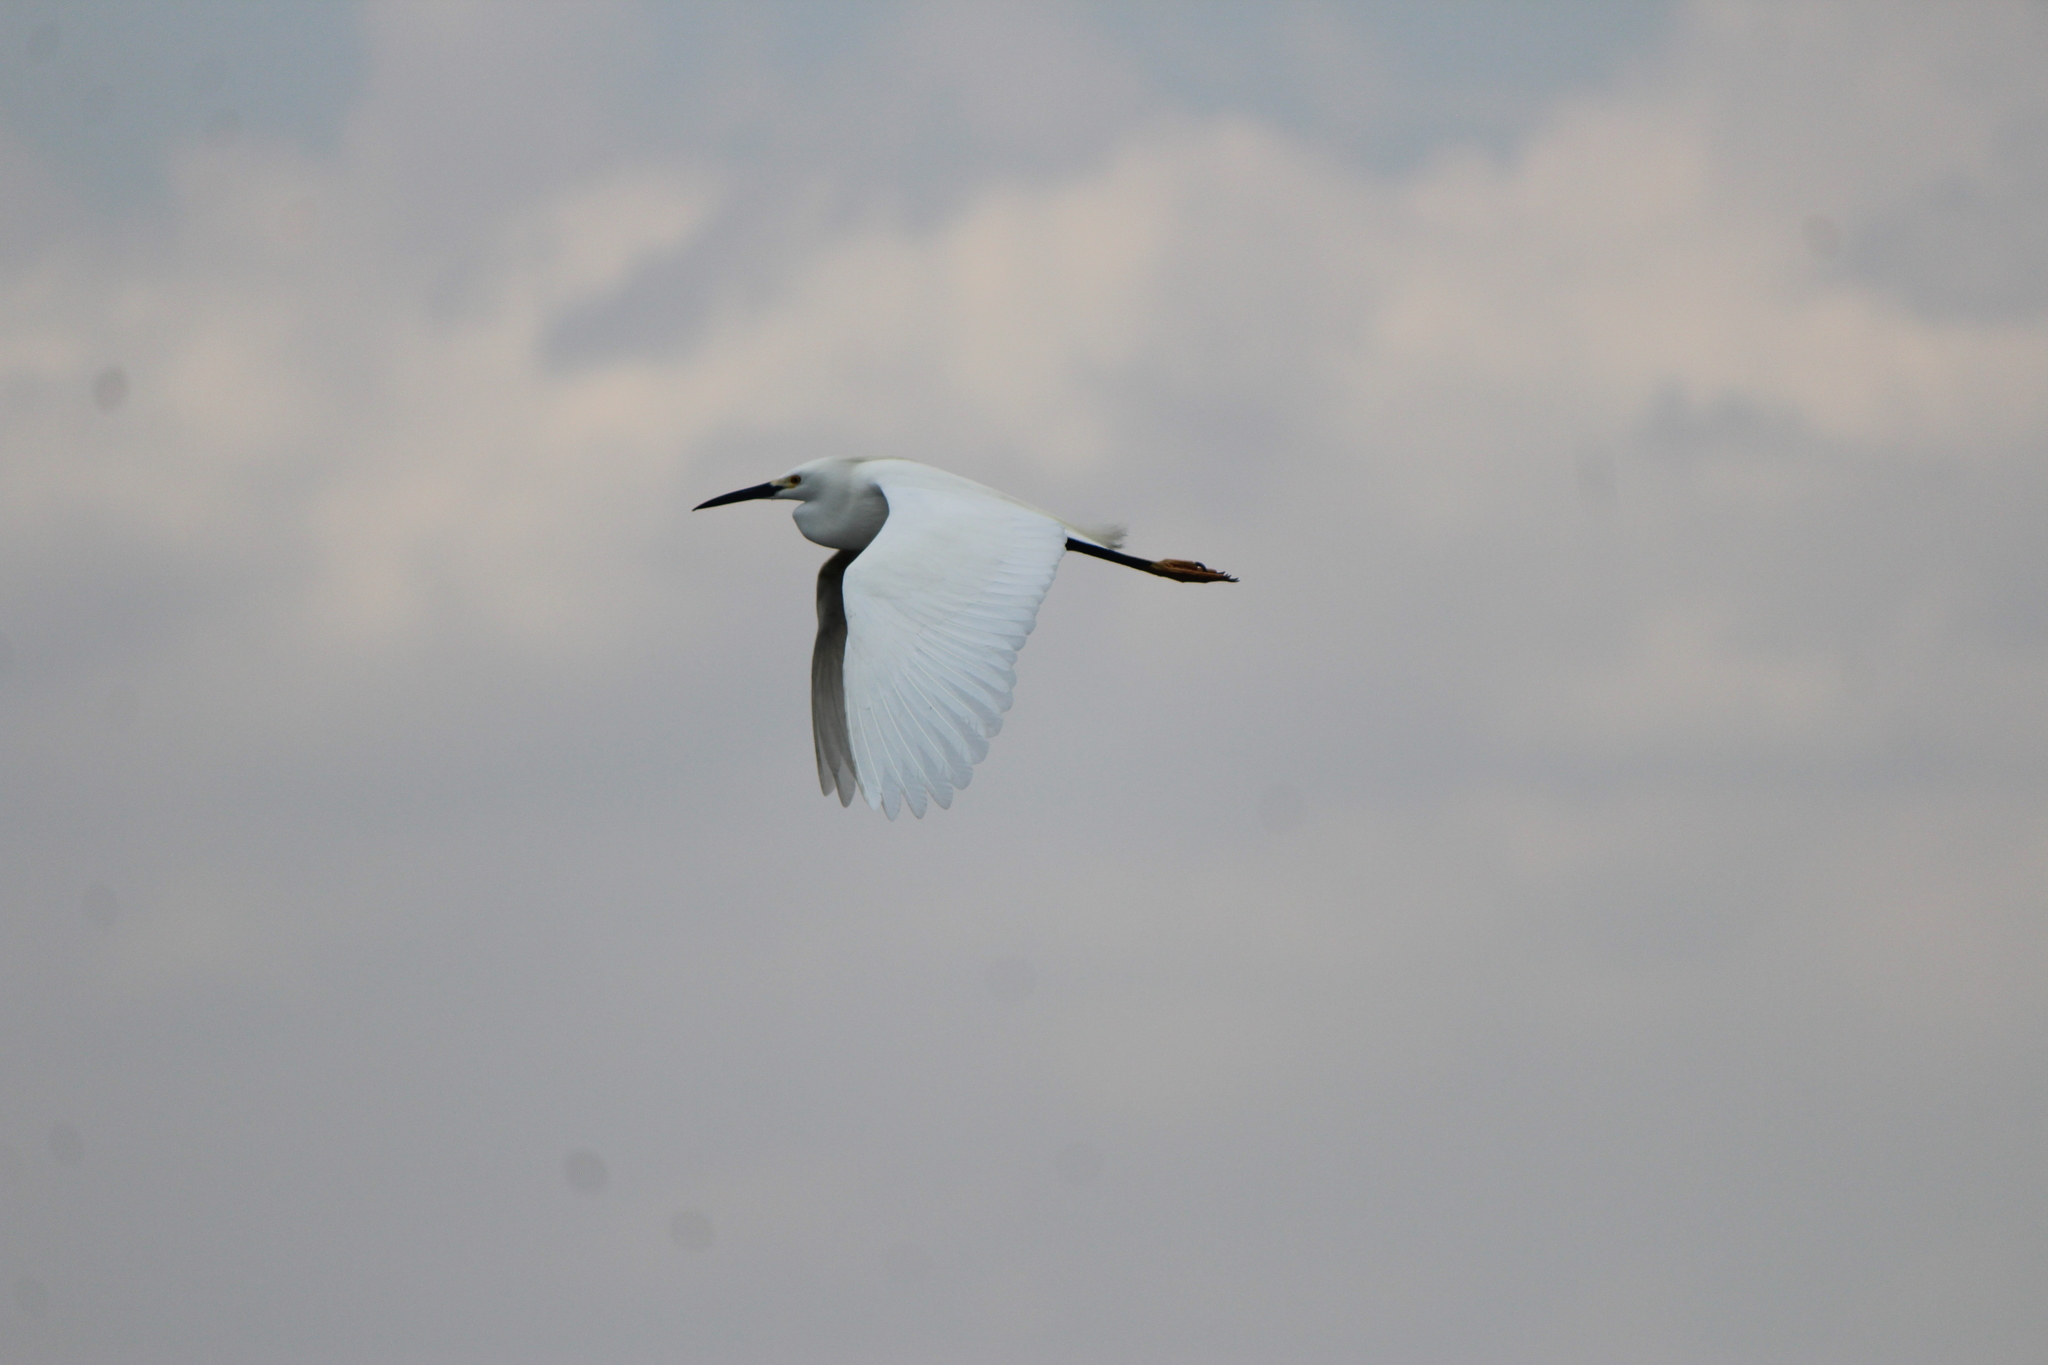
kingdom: Animalia
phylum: Chordata
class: Aves
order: Pelecaniformes
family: Ardeidae
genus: Egretta
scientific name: Egretta thula
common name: Snowy egret
